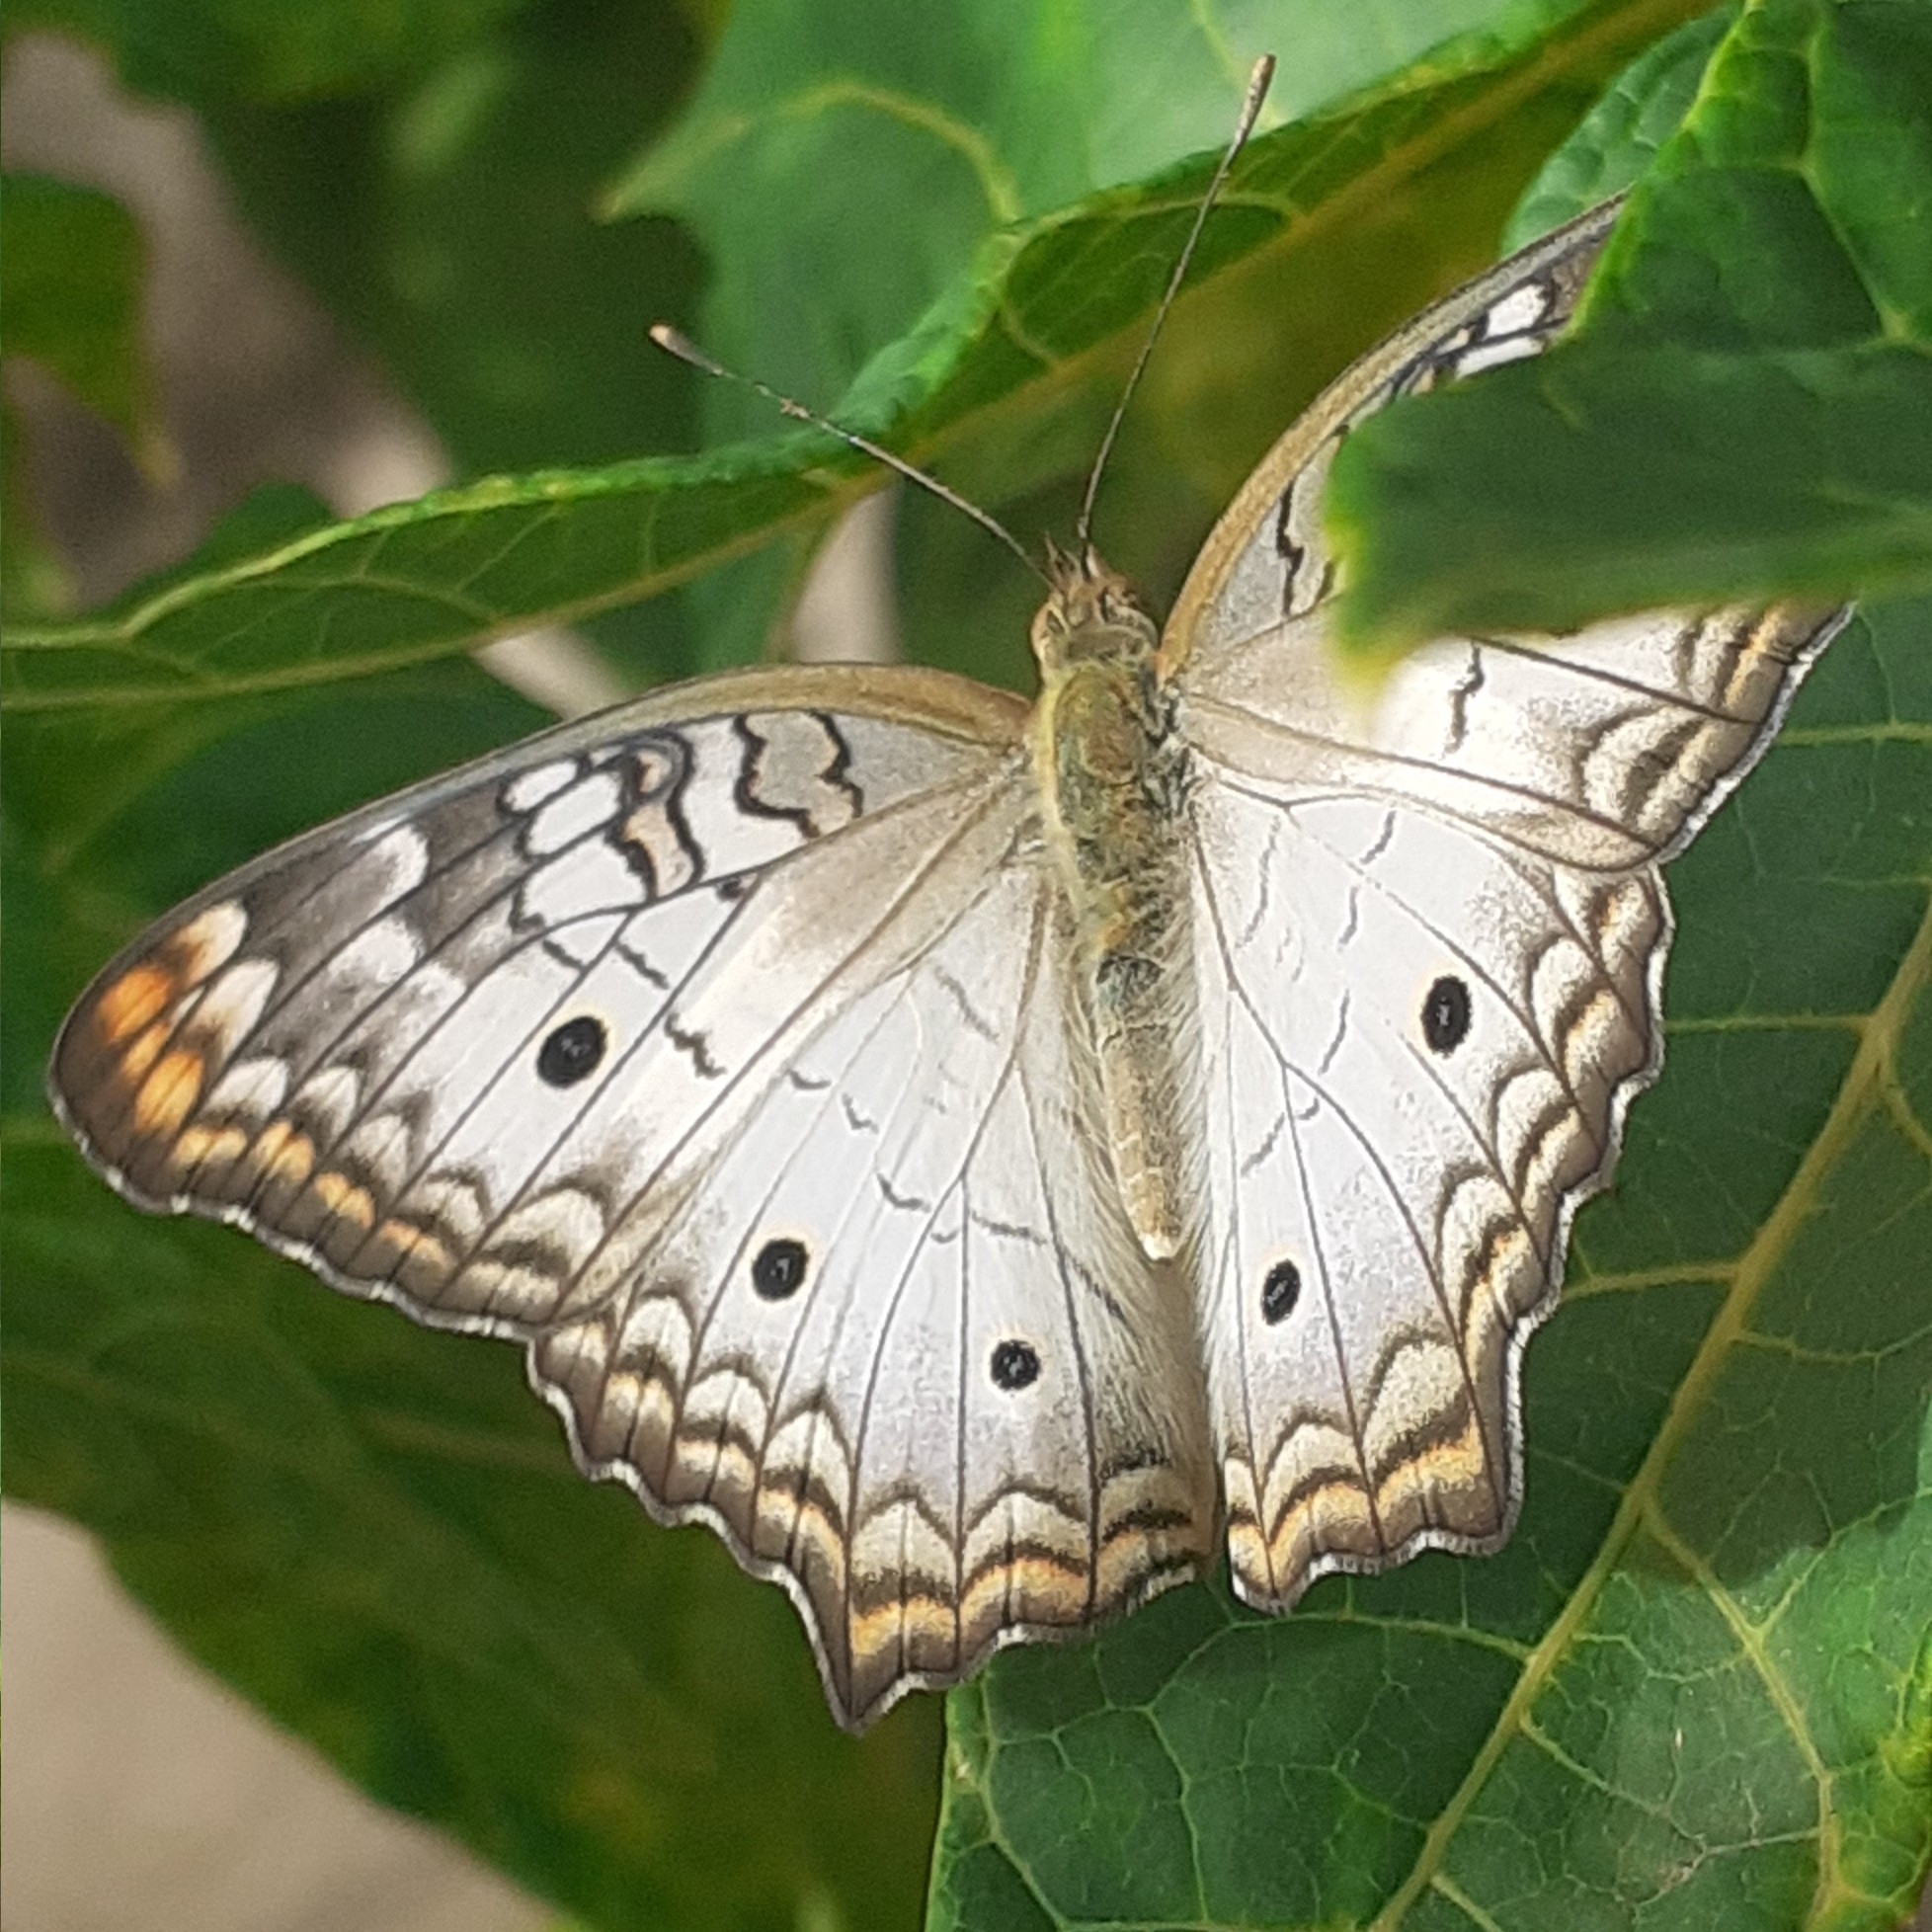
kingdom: Animalia
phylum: Arthropoda
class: Insecta
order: Lepidoptera
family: Nymphalidae
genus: Anartia
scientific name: Anartia jatrophae
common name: White peacock
